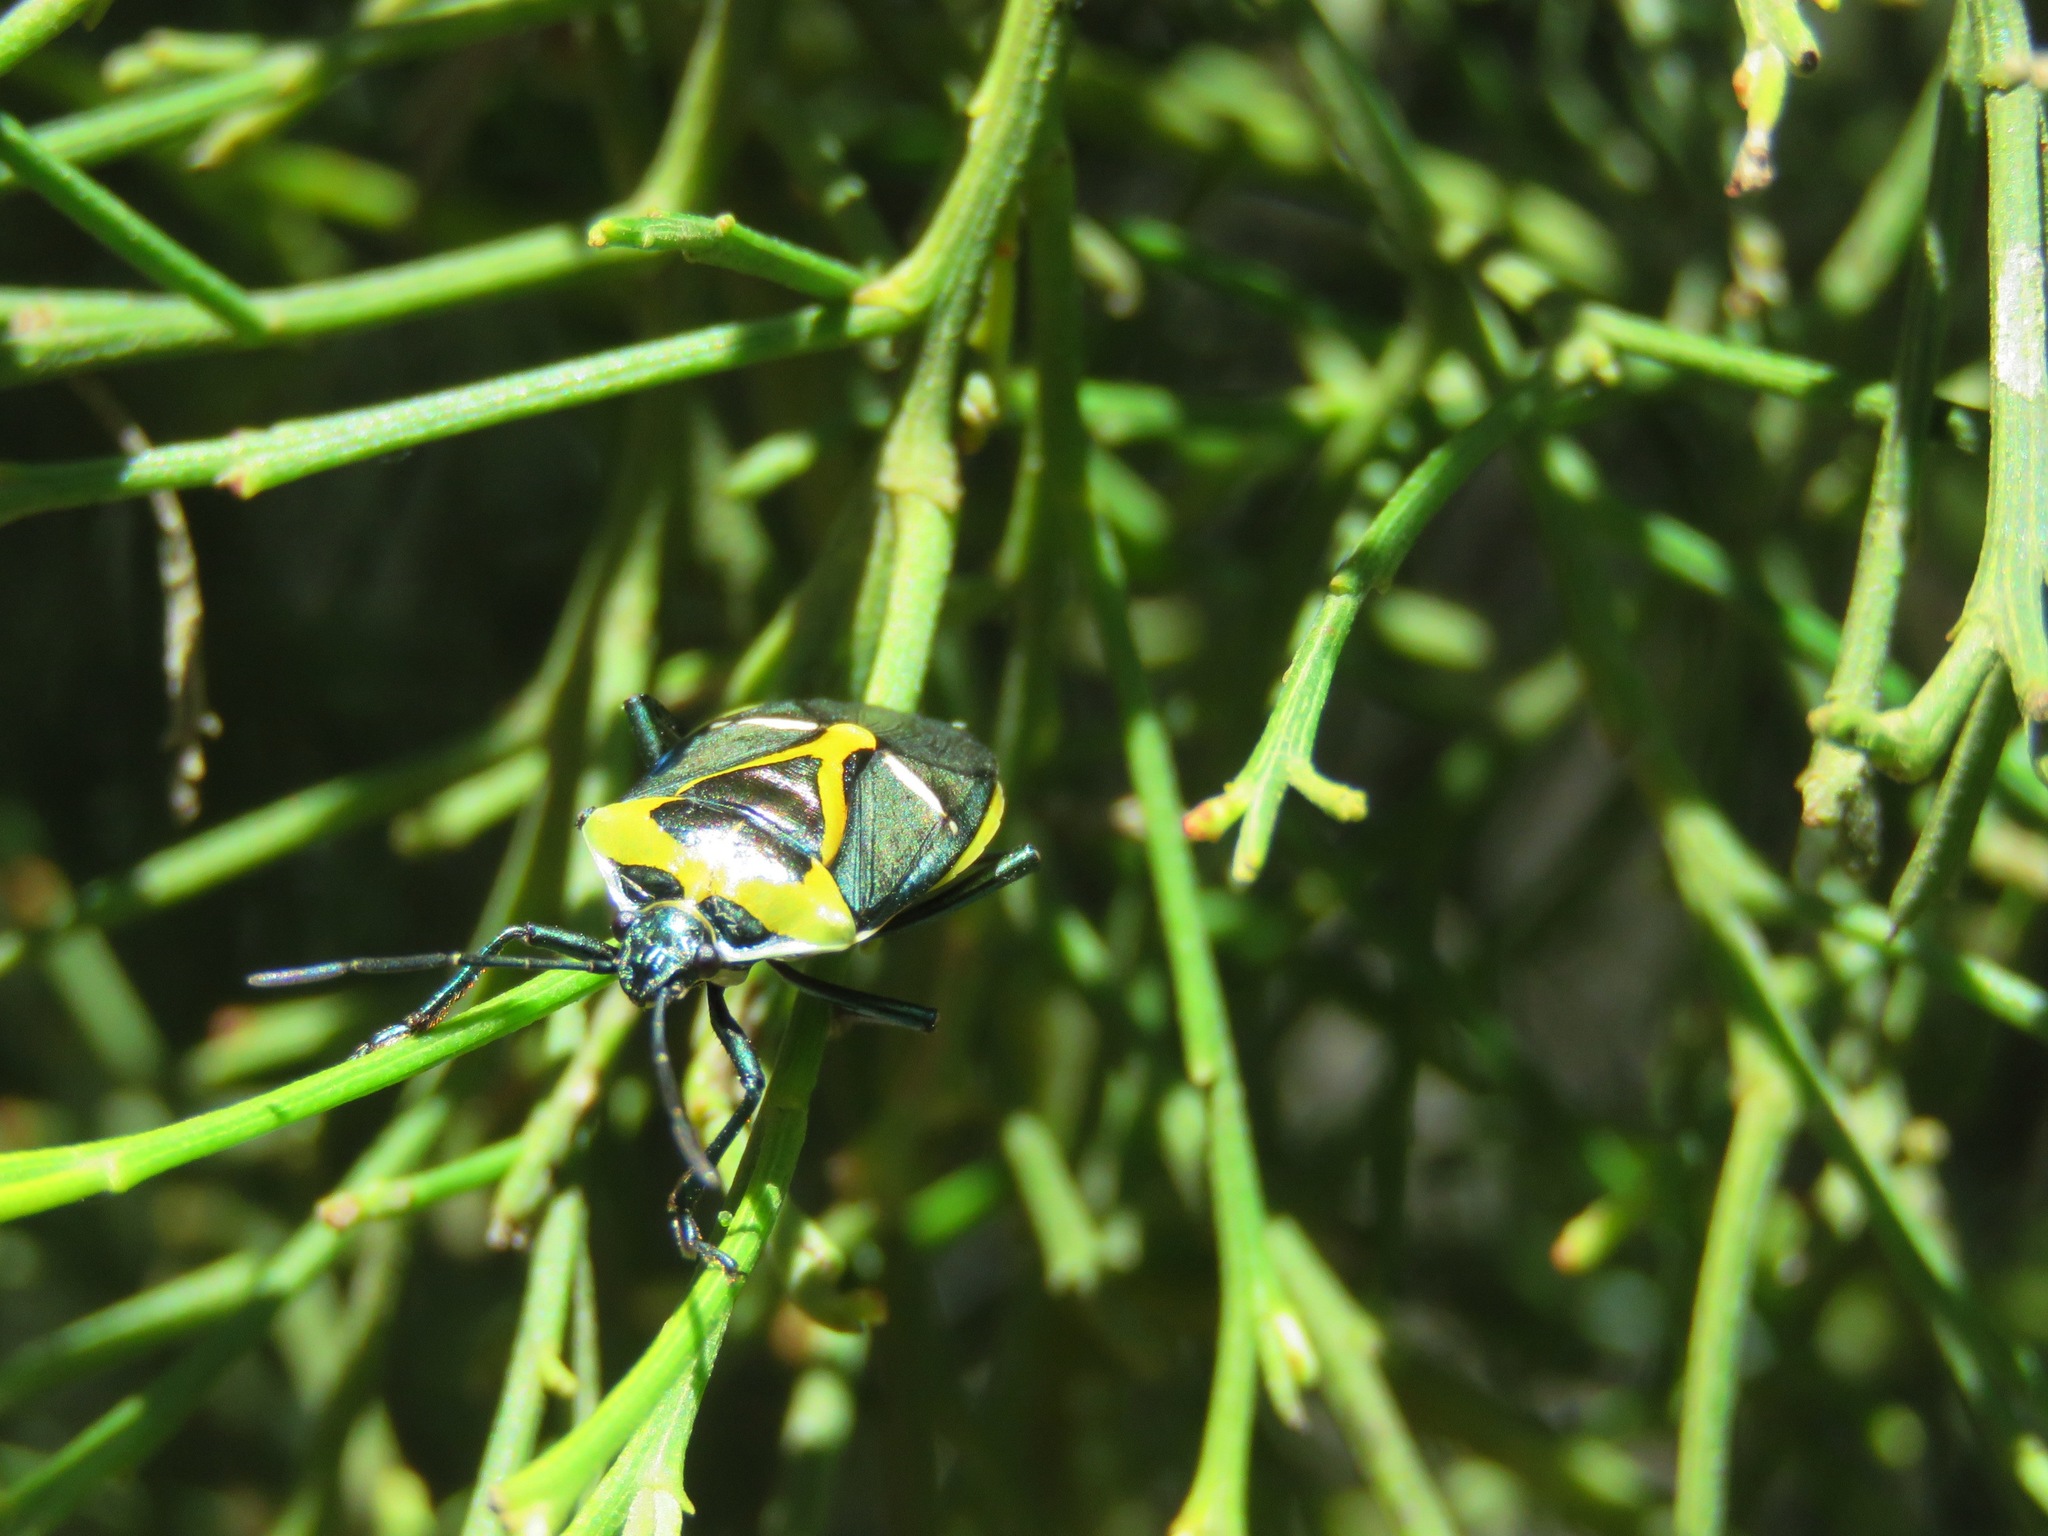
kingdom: Animalia
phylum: Arthropoda
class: Insecta
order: Hemiptera
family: Pentatomidae
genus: Commius
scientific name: Commius
